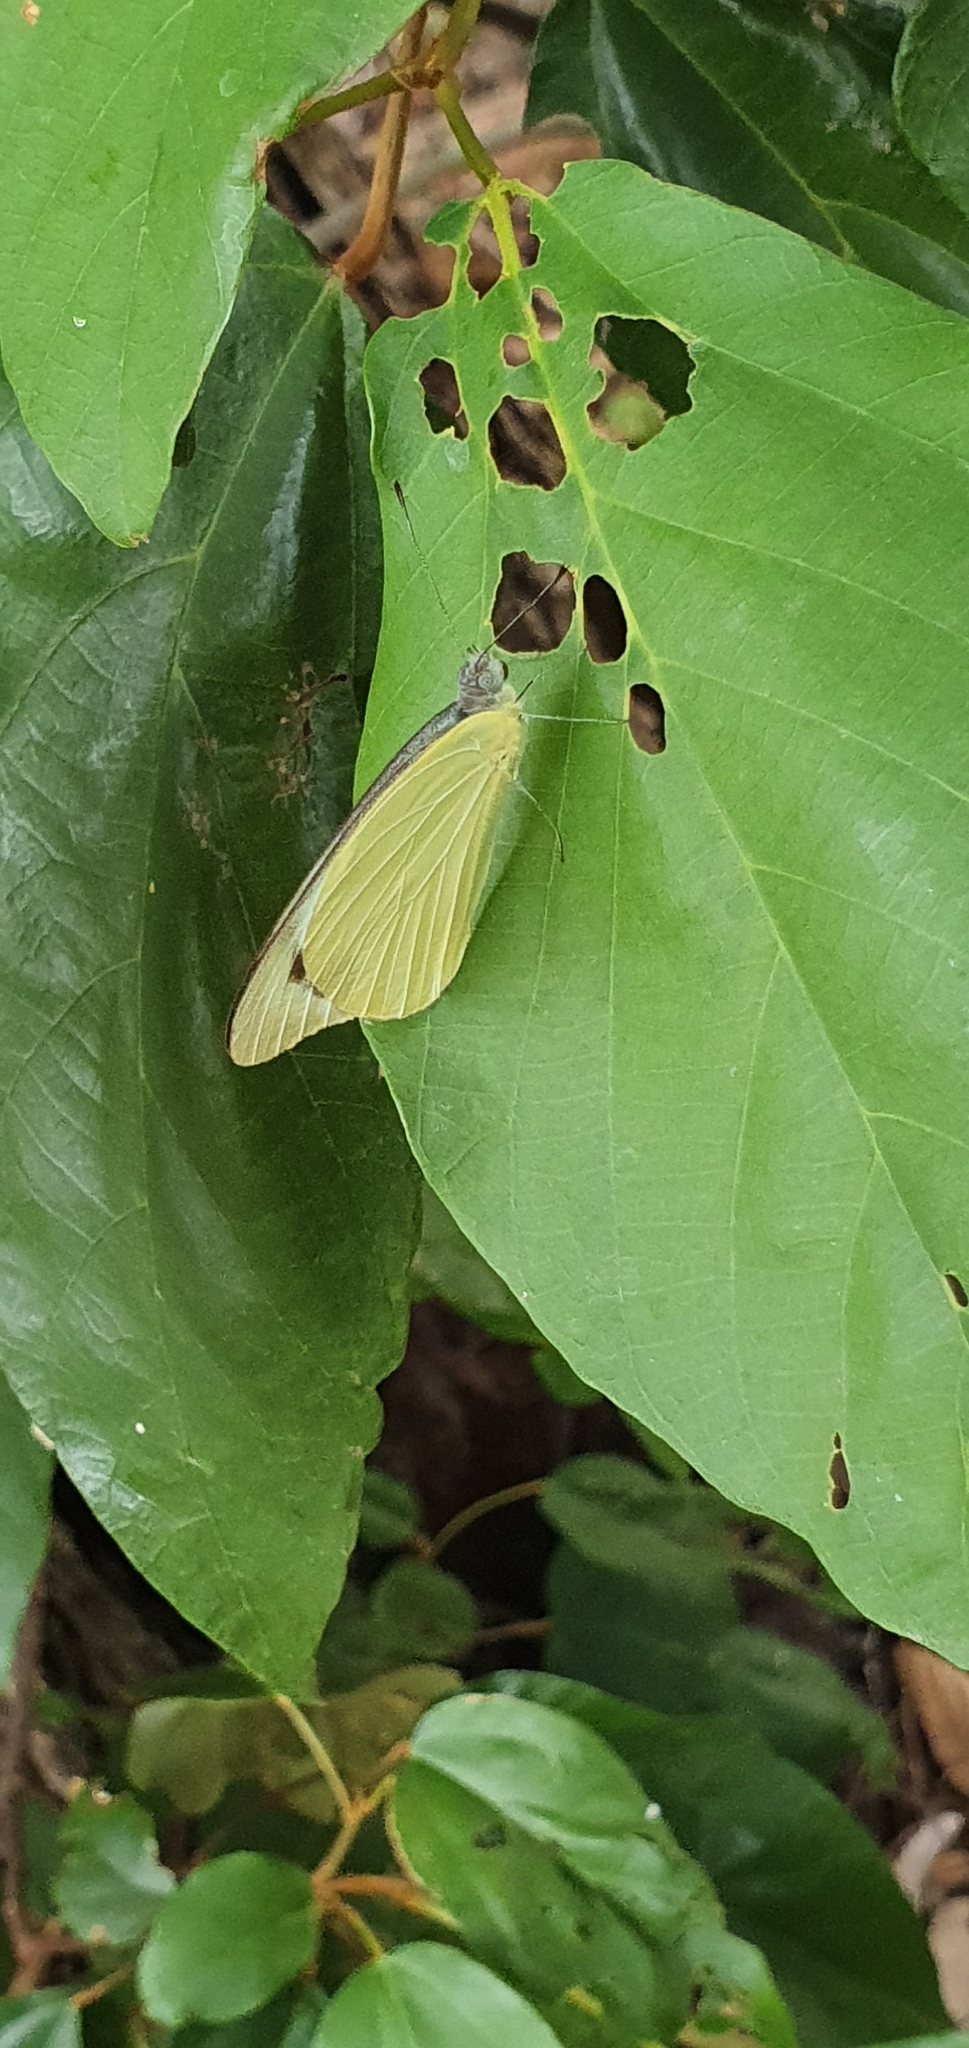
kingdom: Animalia
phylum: Arthropoda
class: Insecta
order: Lepidoptera
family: Pieridae
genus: Appias
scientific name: Appias paulina
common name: Ceylon lesser albatross
